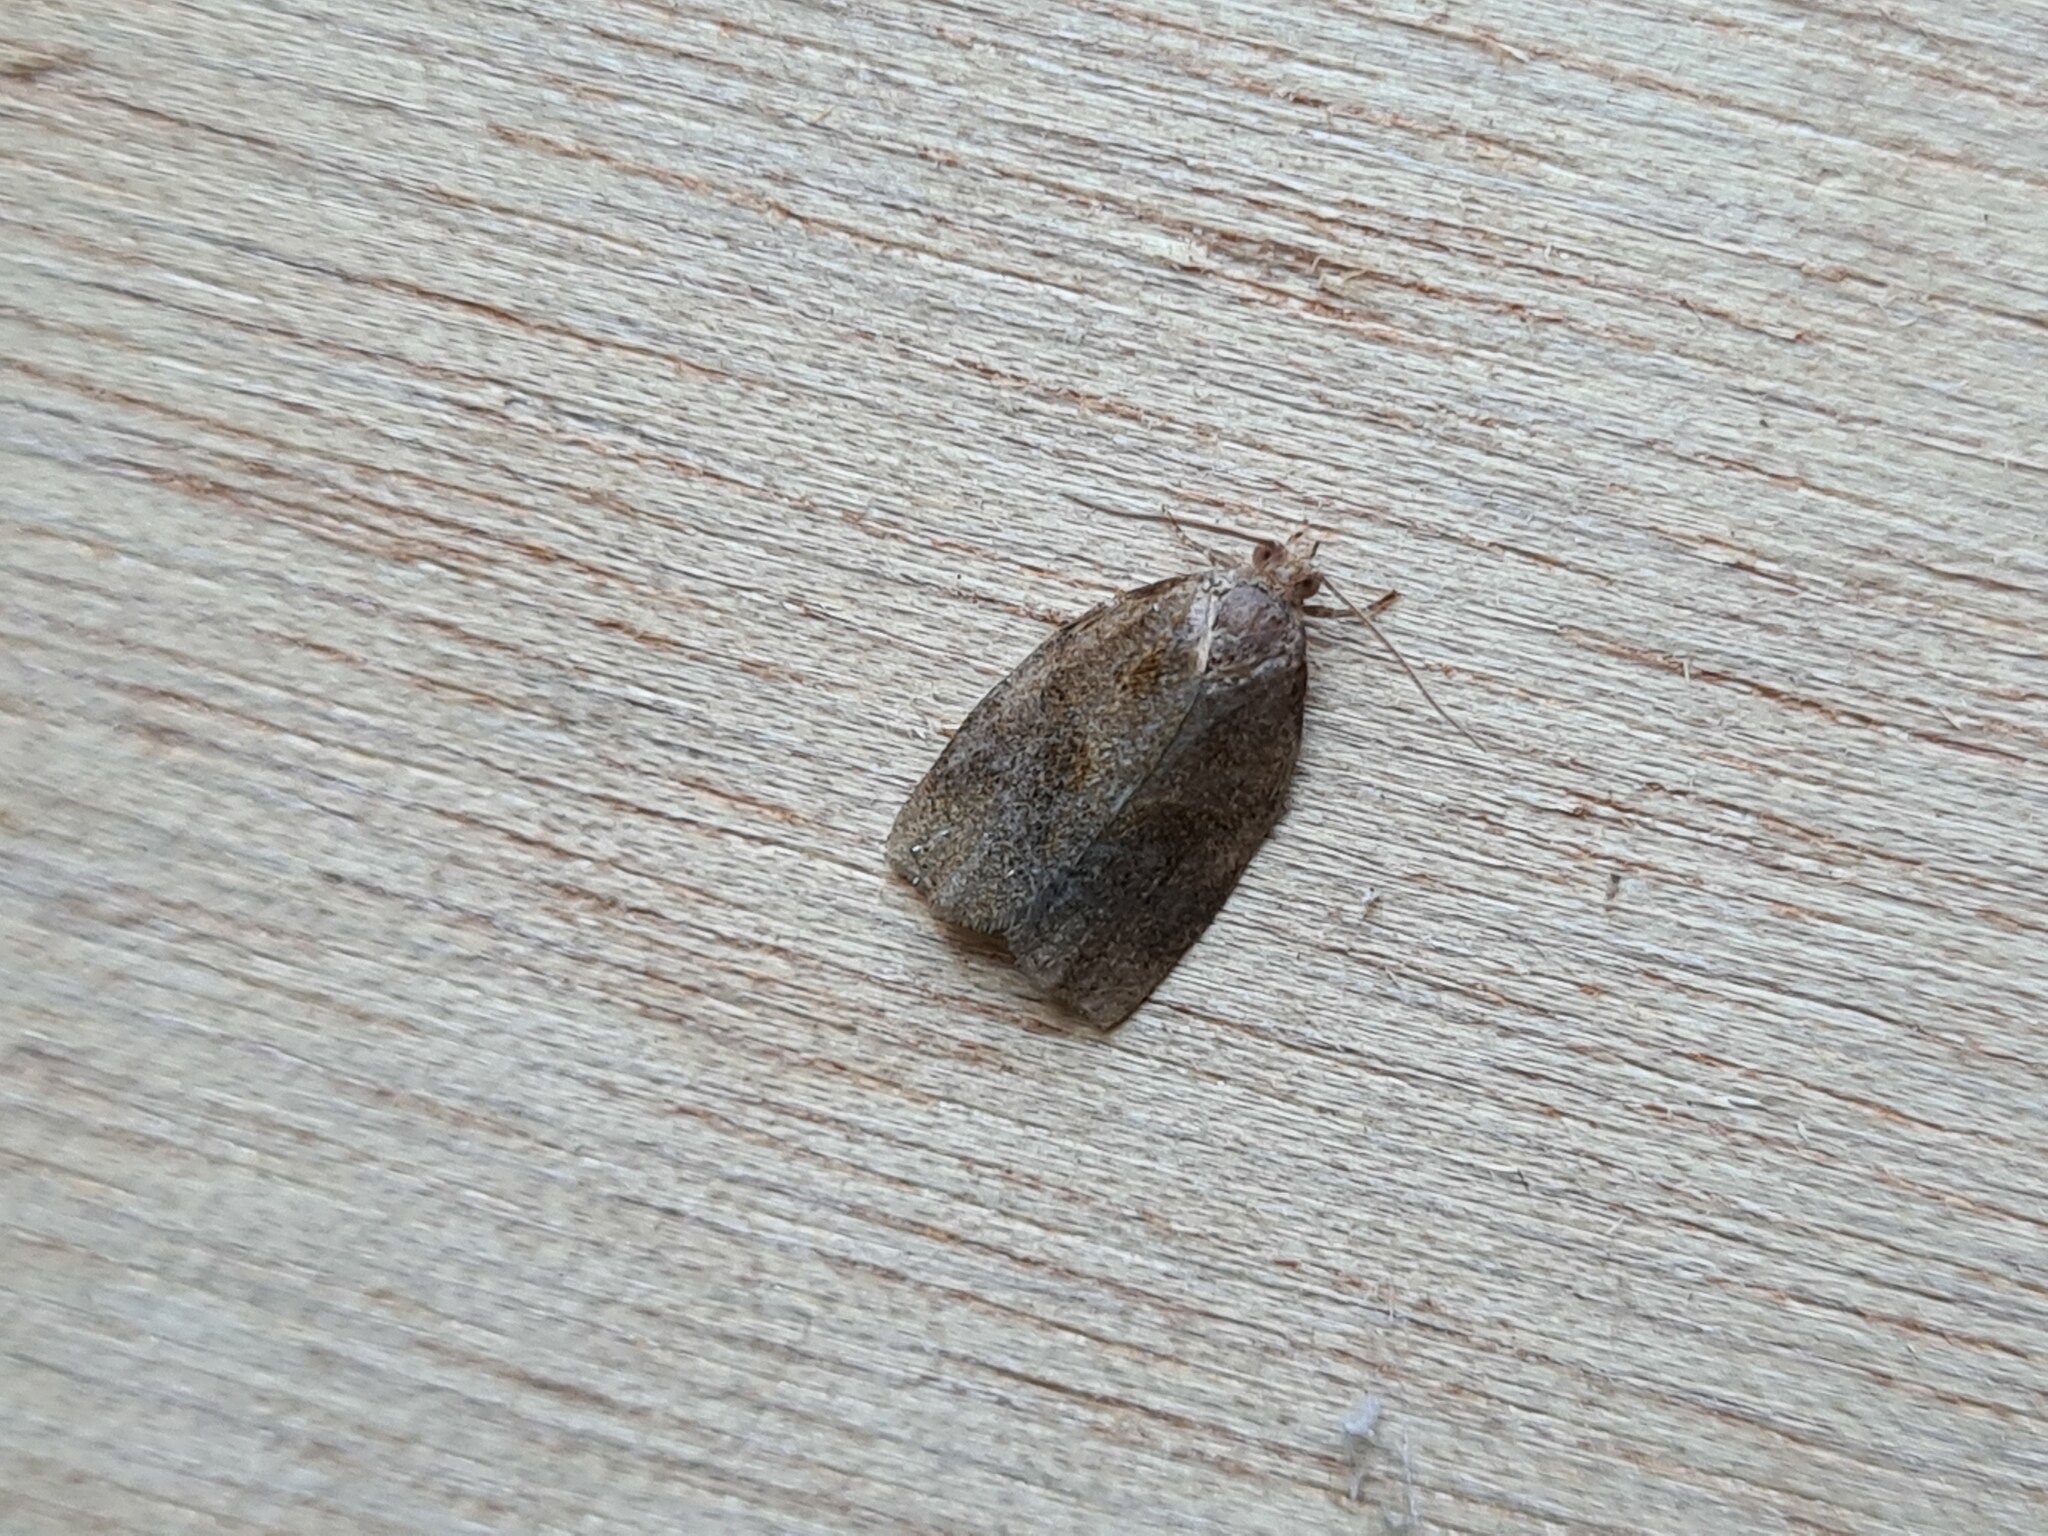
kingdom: Animalia
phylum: Arthropoda
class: Insecta
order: Lepidoptera
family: Tortricidae
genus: Archips
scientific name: Archips rosana
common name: Rose tortrix
